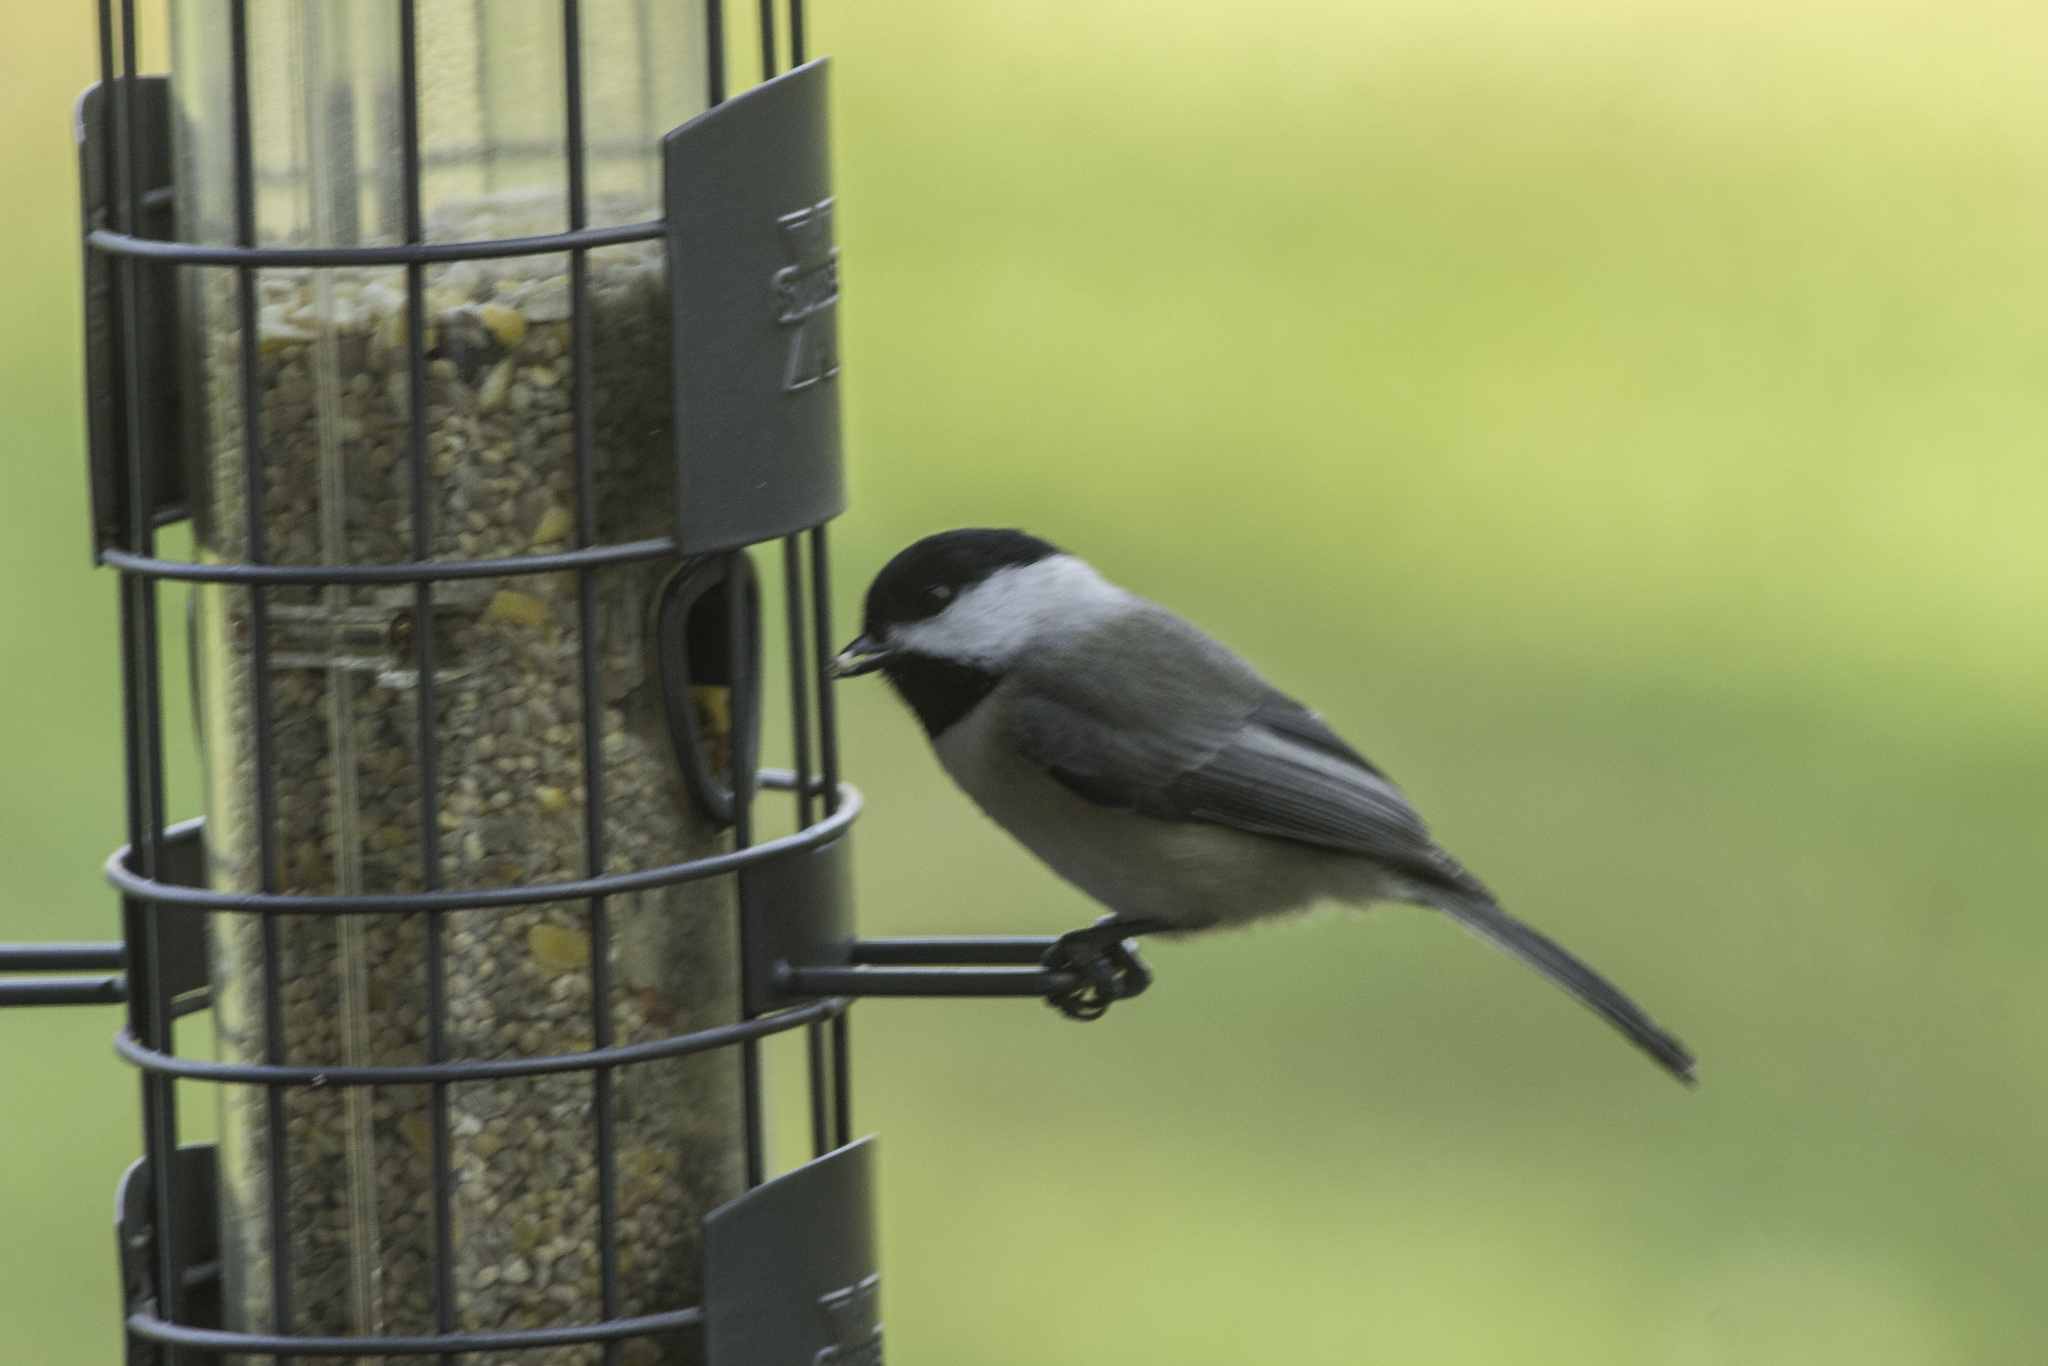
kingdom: Animalia
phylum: Chordata
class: Aves
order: Passeriformes
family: Paridae
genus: Poecile
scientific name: Poecile carolinensis
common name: Carolina chickadee
